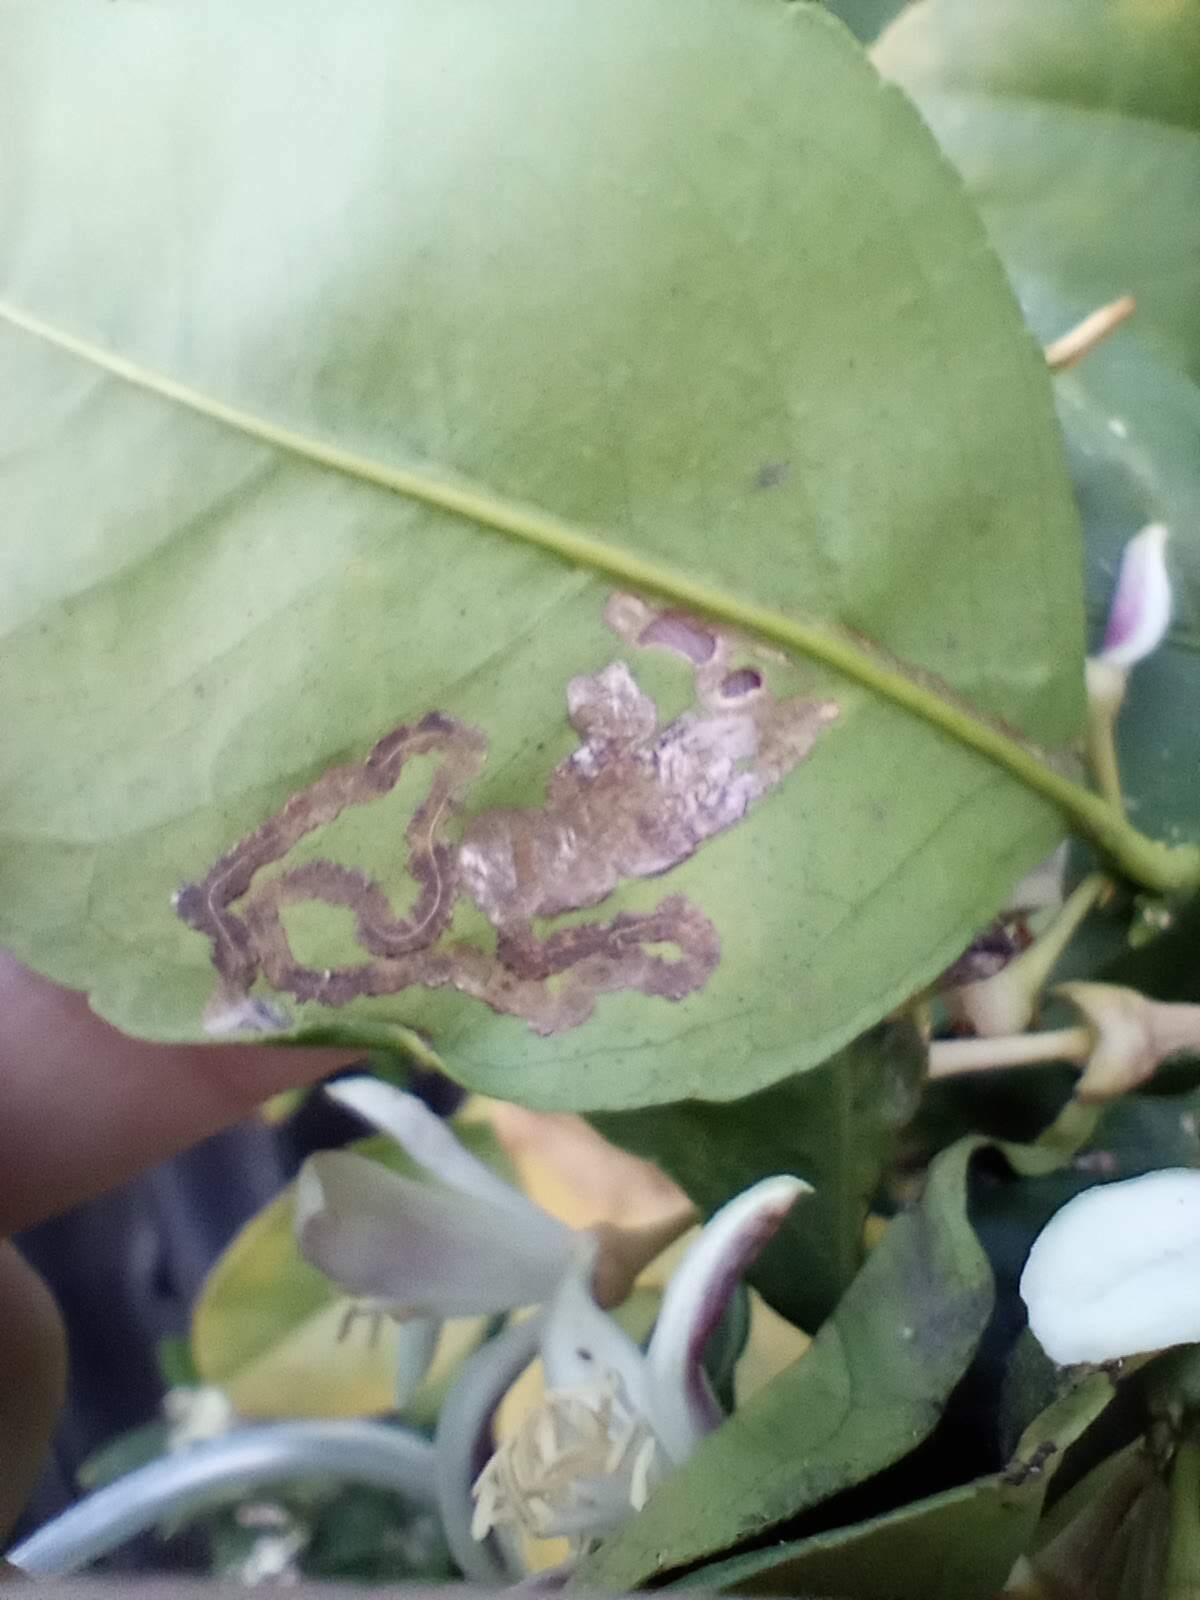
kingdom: Animalia
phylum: Arthropoda
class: Insecta
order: Lepidoptera
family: Gracillariidae
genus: Phyllocnistis
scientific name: Phyllocnistis citrella
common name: Citrus leafminer
